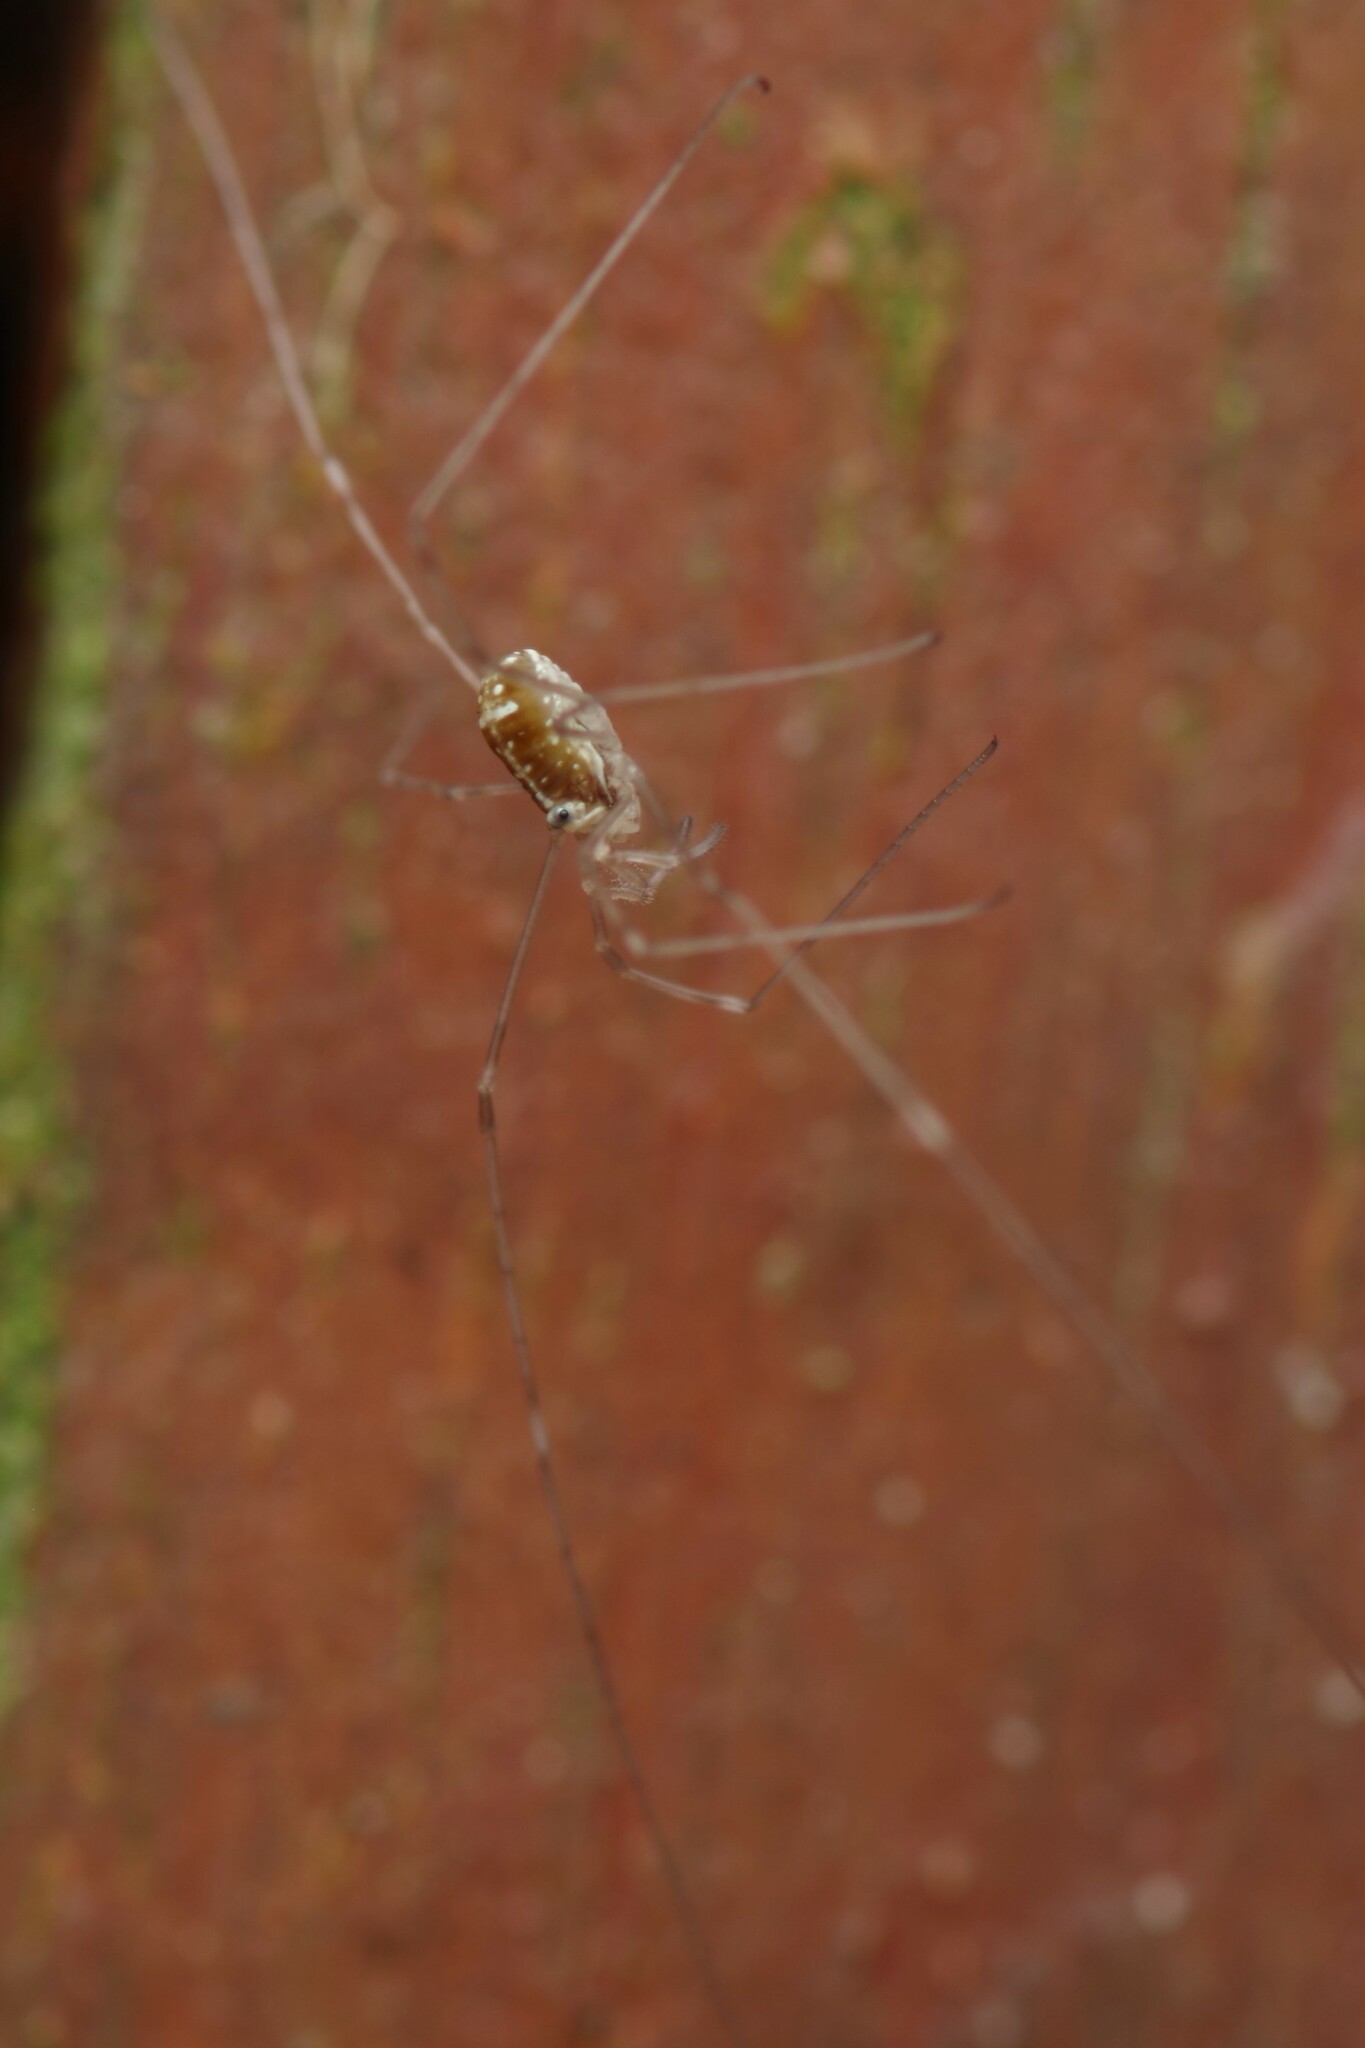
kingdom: Animalia
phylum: Arthropoda
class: Arachnida
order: Opiliones
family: Phalangiidae
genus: Dicranopalpus
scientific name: Dicranopalpus ramosus
